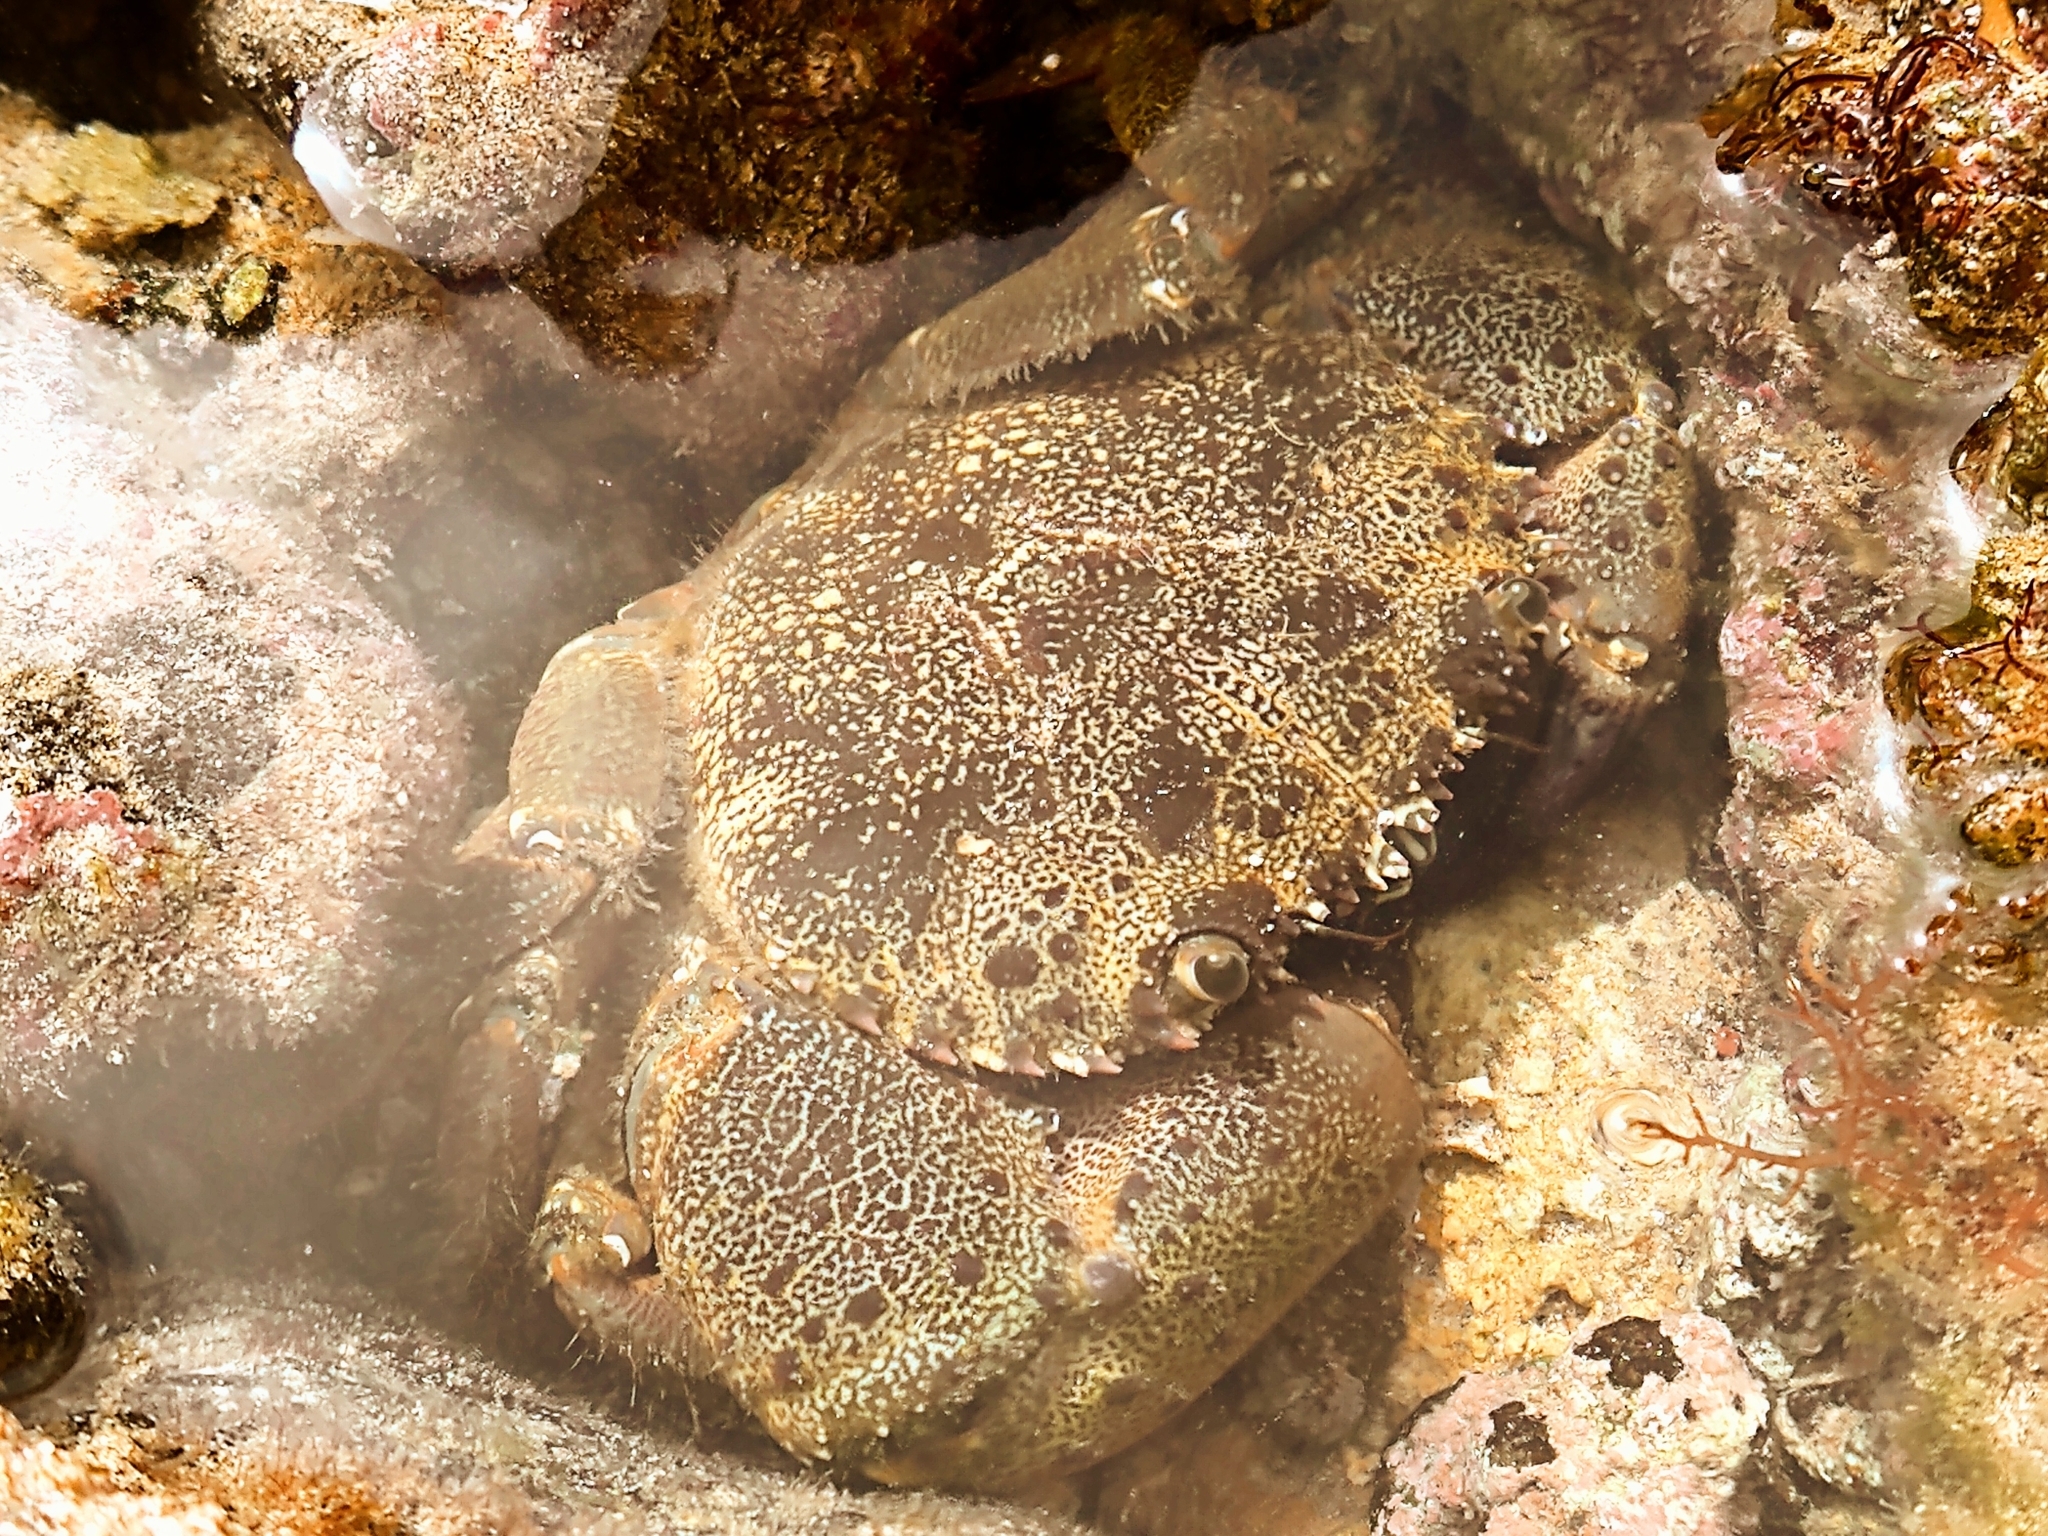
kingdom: Animalia
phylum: Arthropoda
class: Malacostraca
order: Decapoda
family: Eriphiidae
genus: Eriphia
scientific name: Eriphia verrucosa
